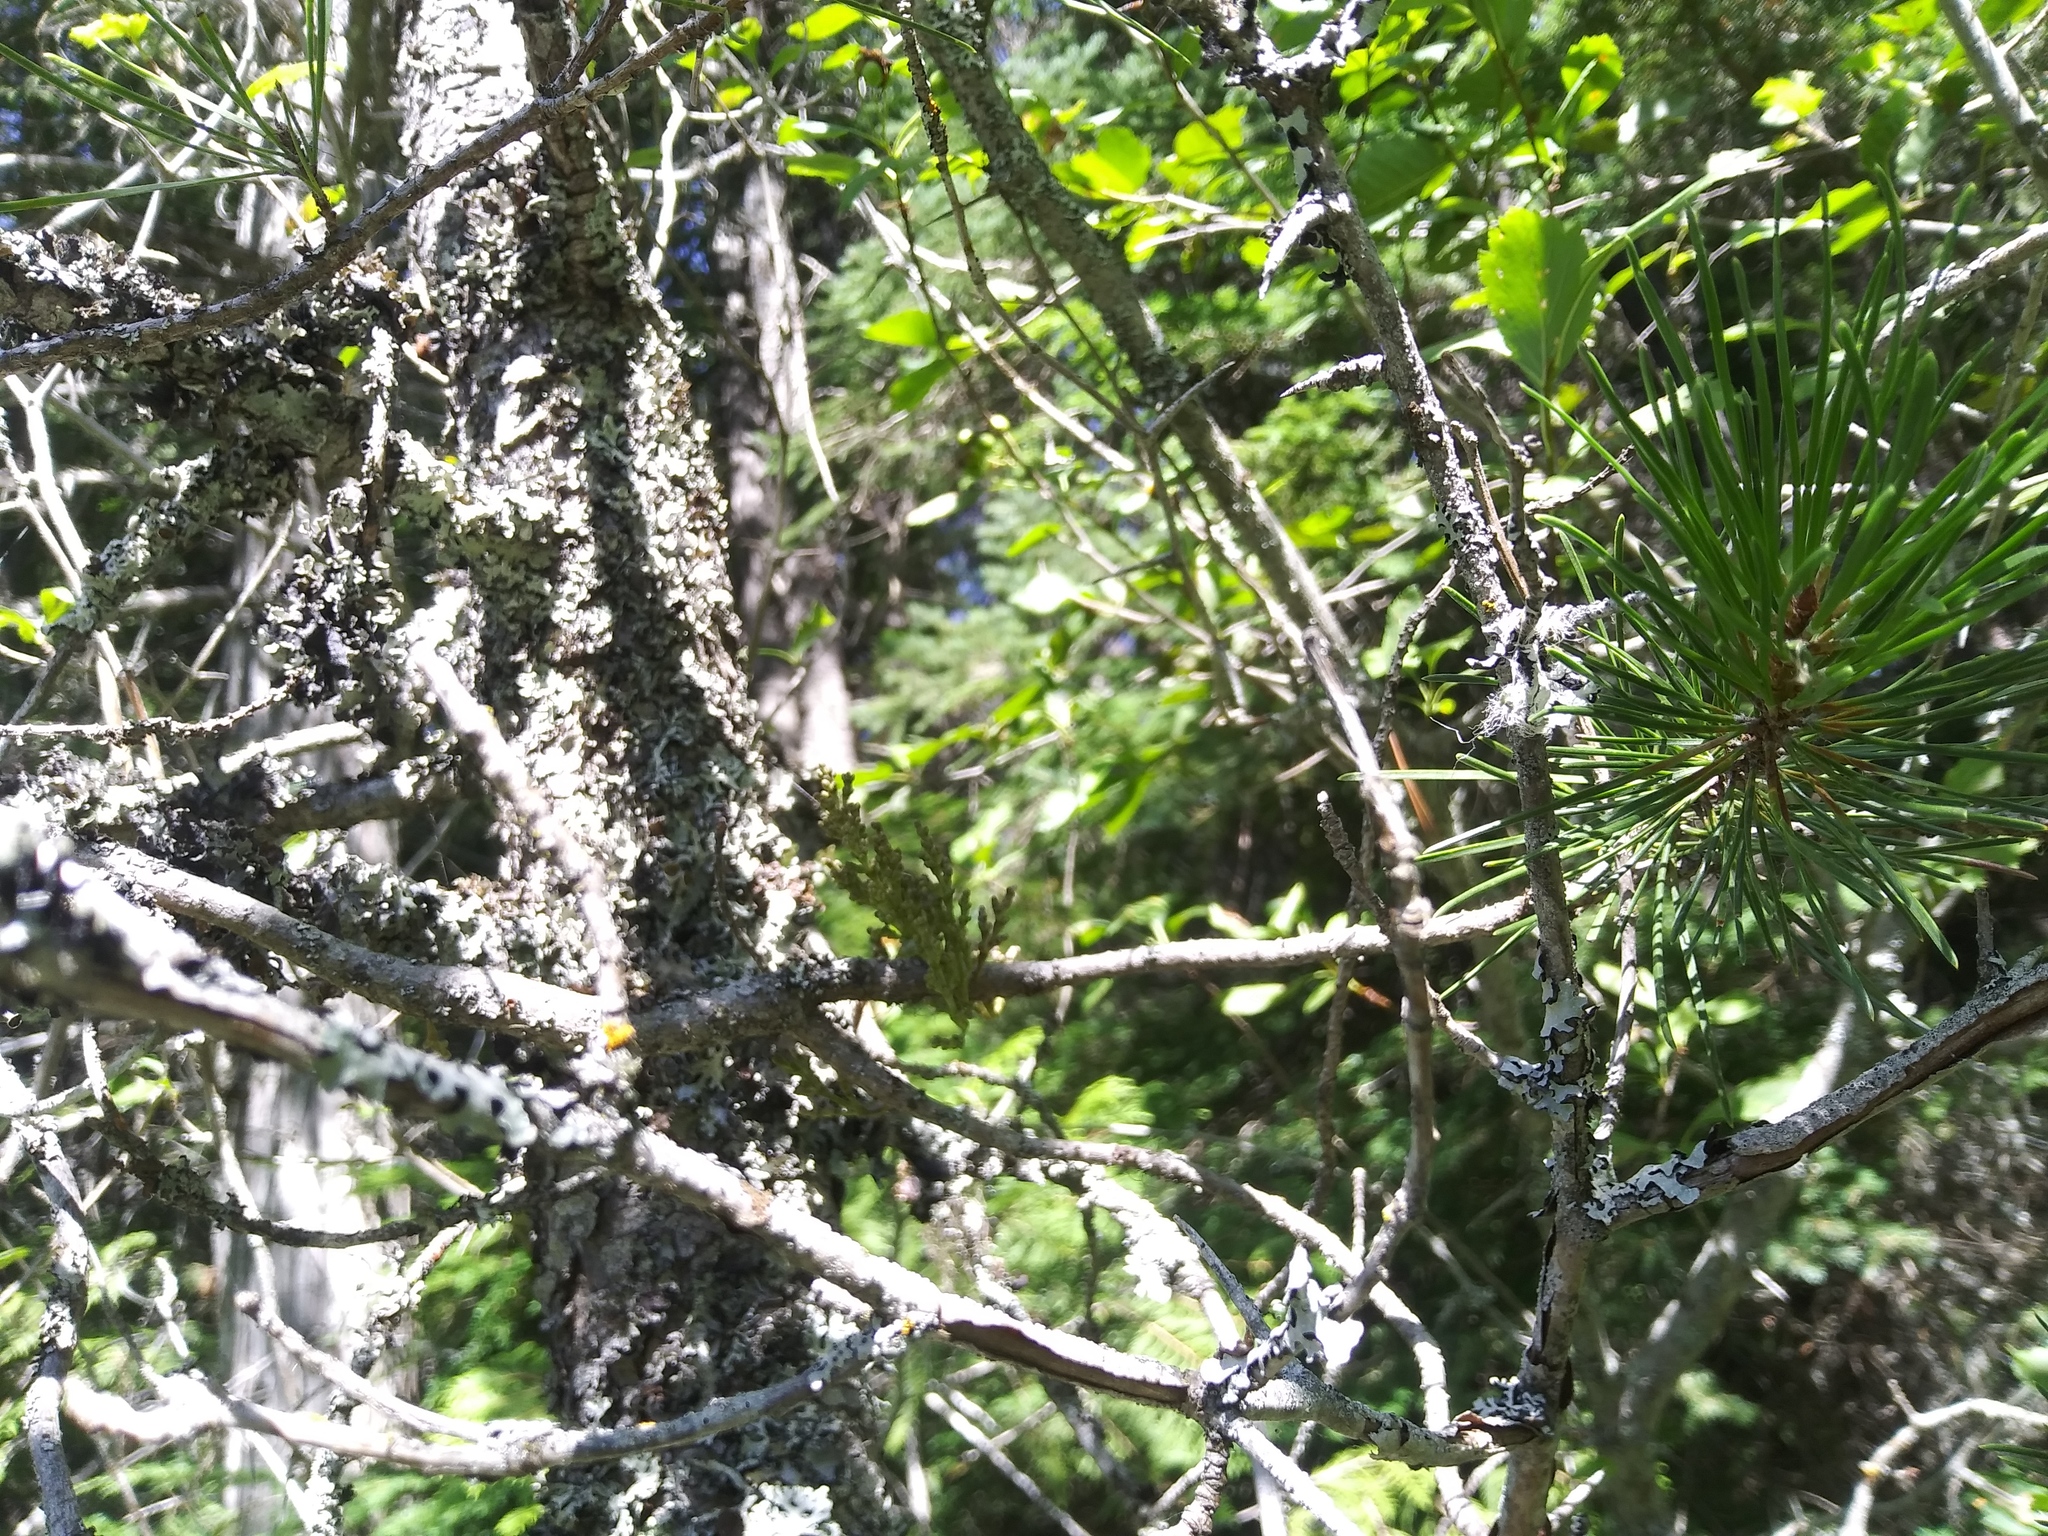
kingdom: Plantae
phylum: Tracheophyta
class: Magnoliopsida
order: Santalales
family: Viscaceae
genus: Arceuthobium
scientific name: Arceuthobium americanum
